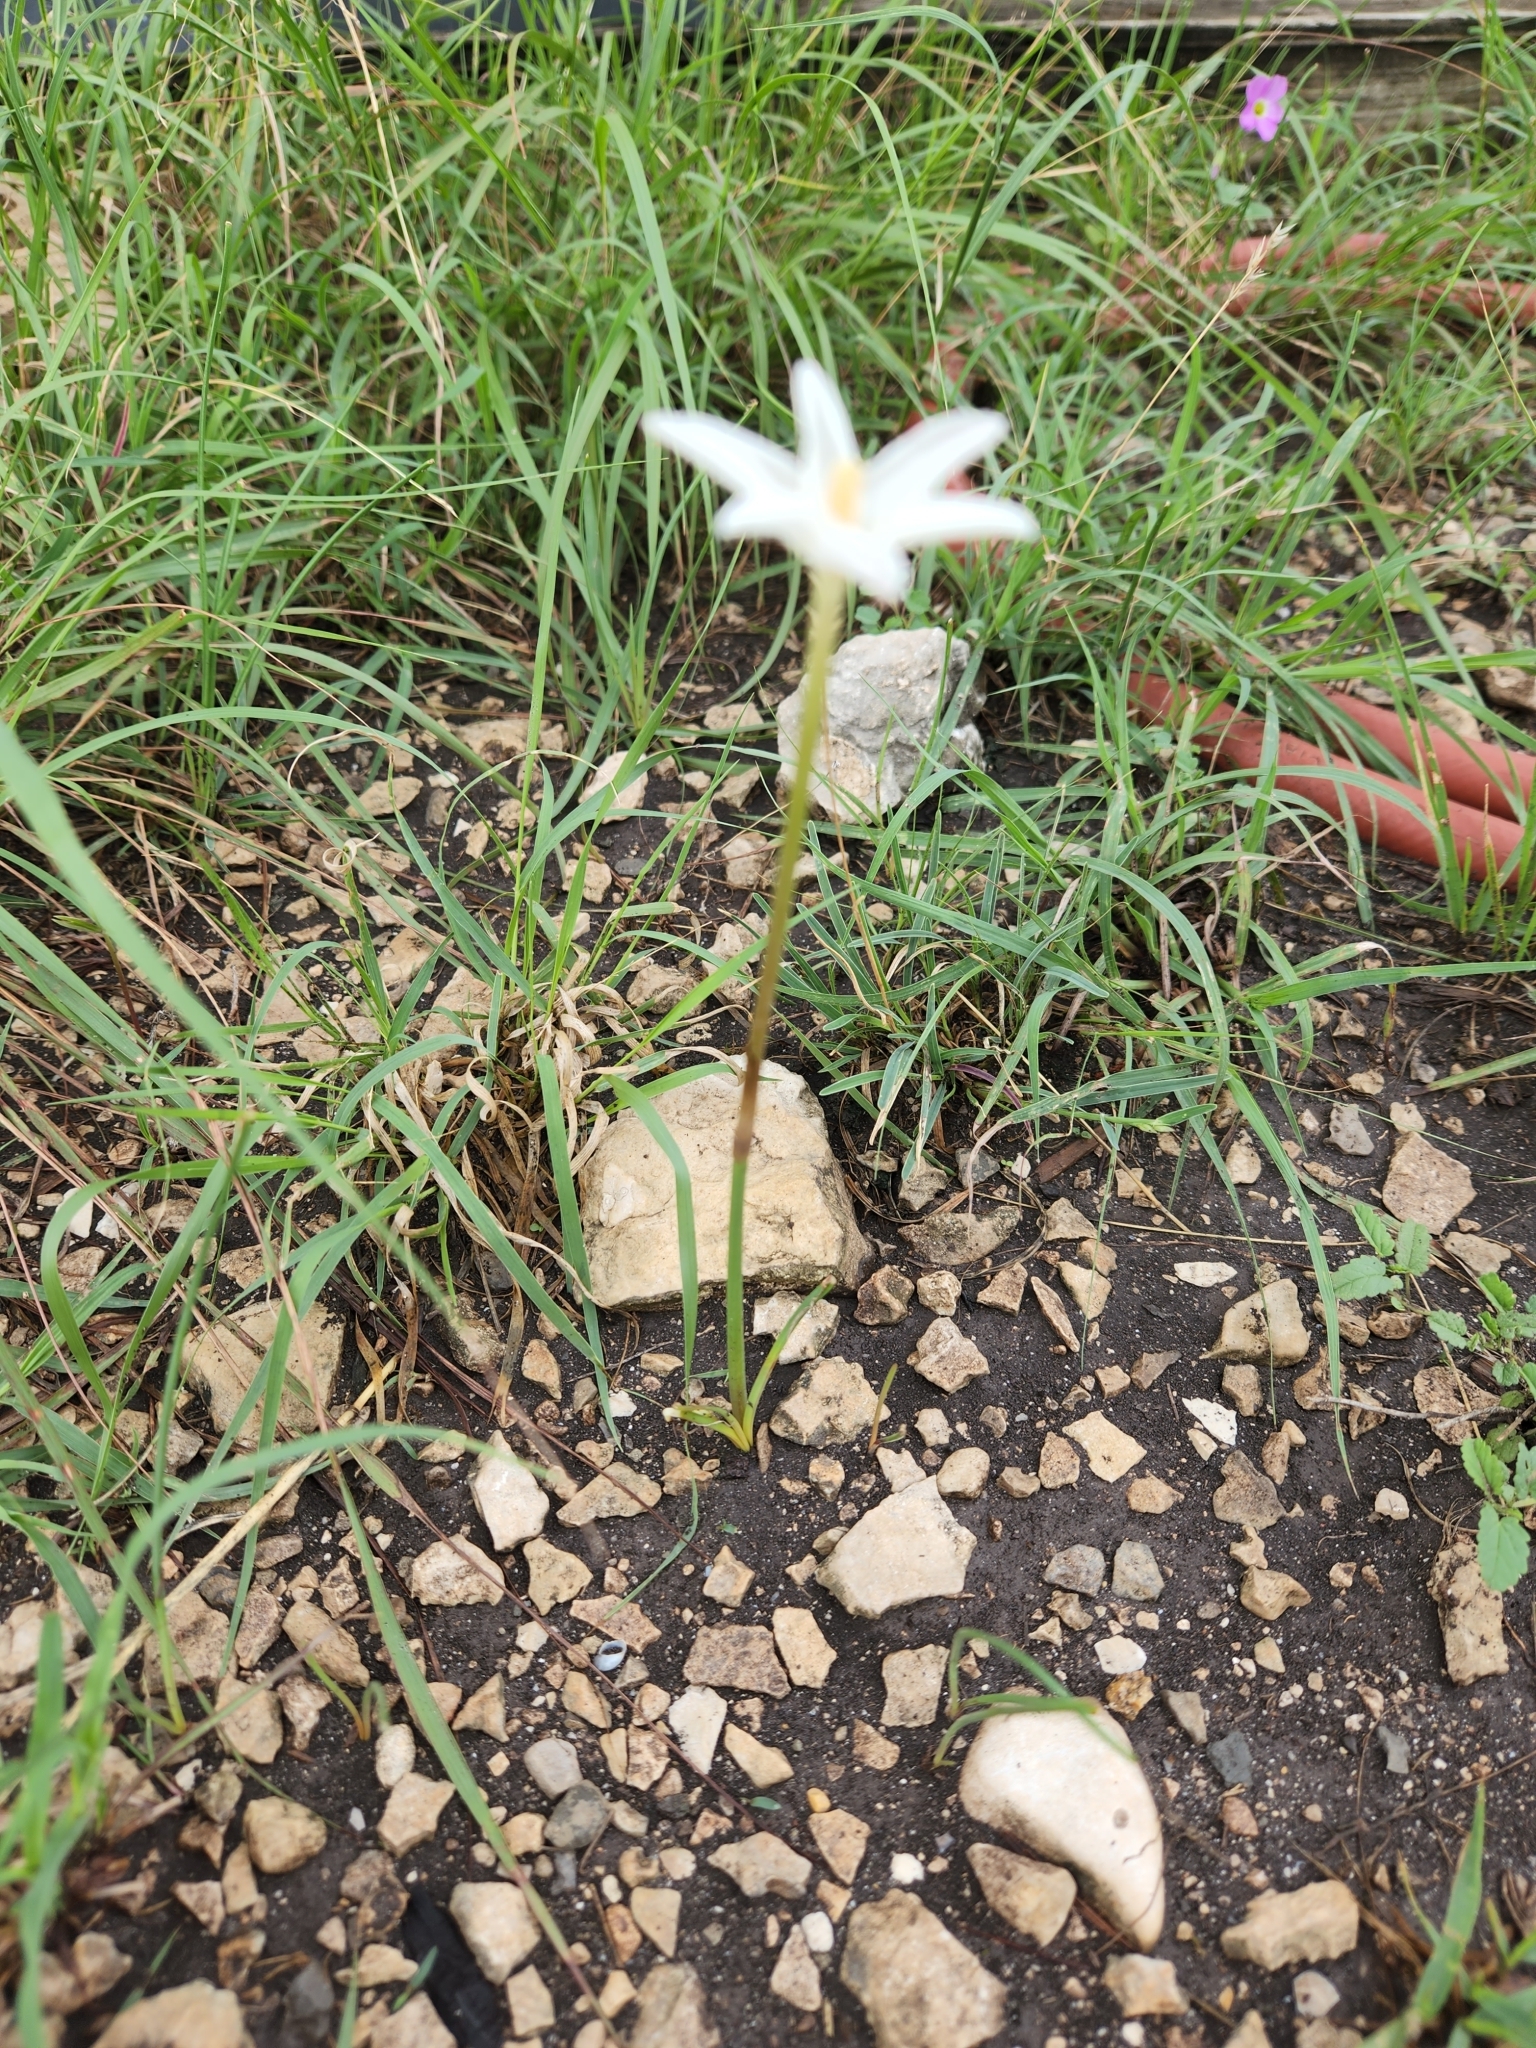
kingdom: Plantae
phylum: Tracheophyta
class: Liliopsida
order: Asparagales
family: Amaryllidaceae
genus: Zephyranthes
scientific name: Zephyranthes chlorosolen
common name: Evening rain-lily
